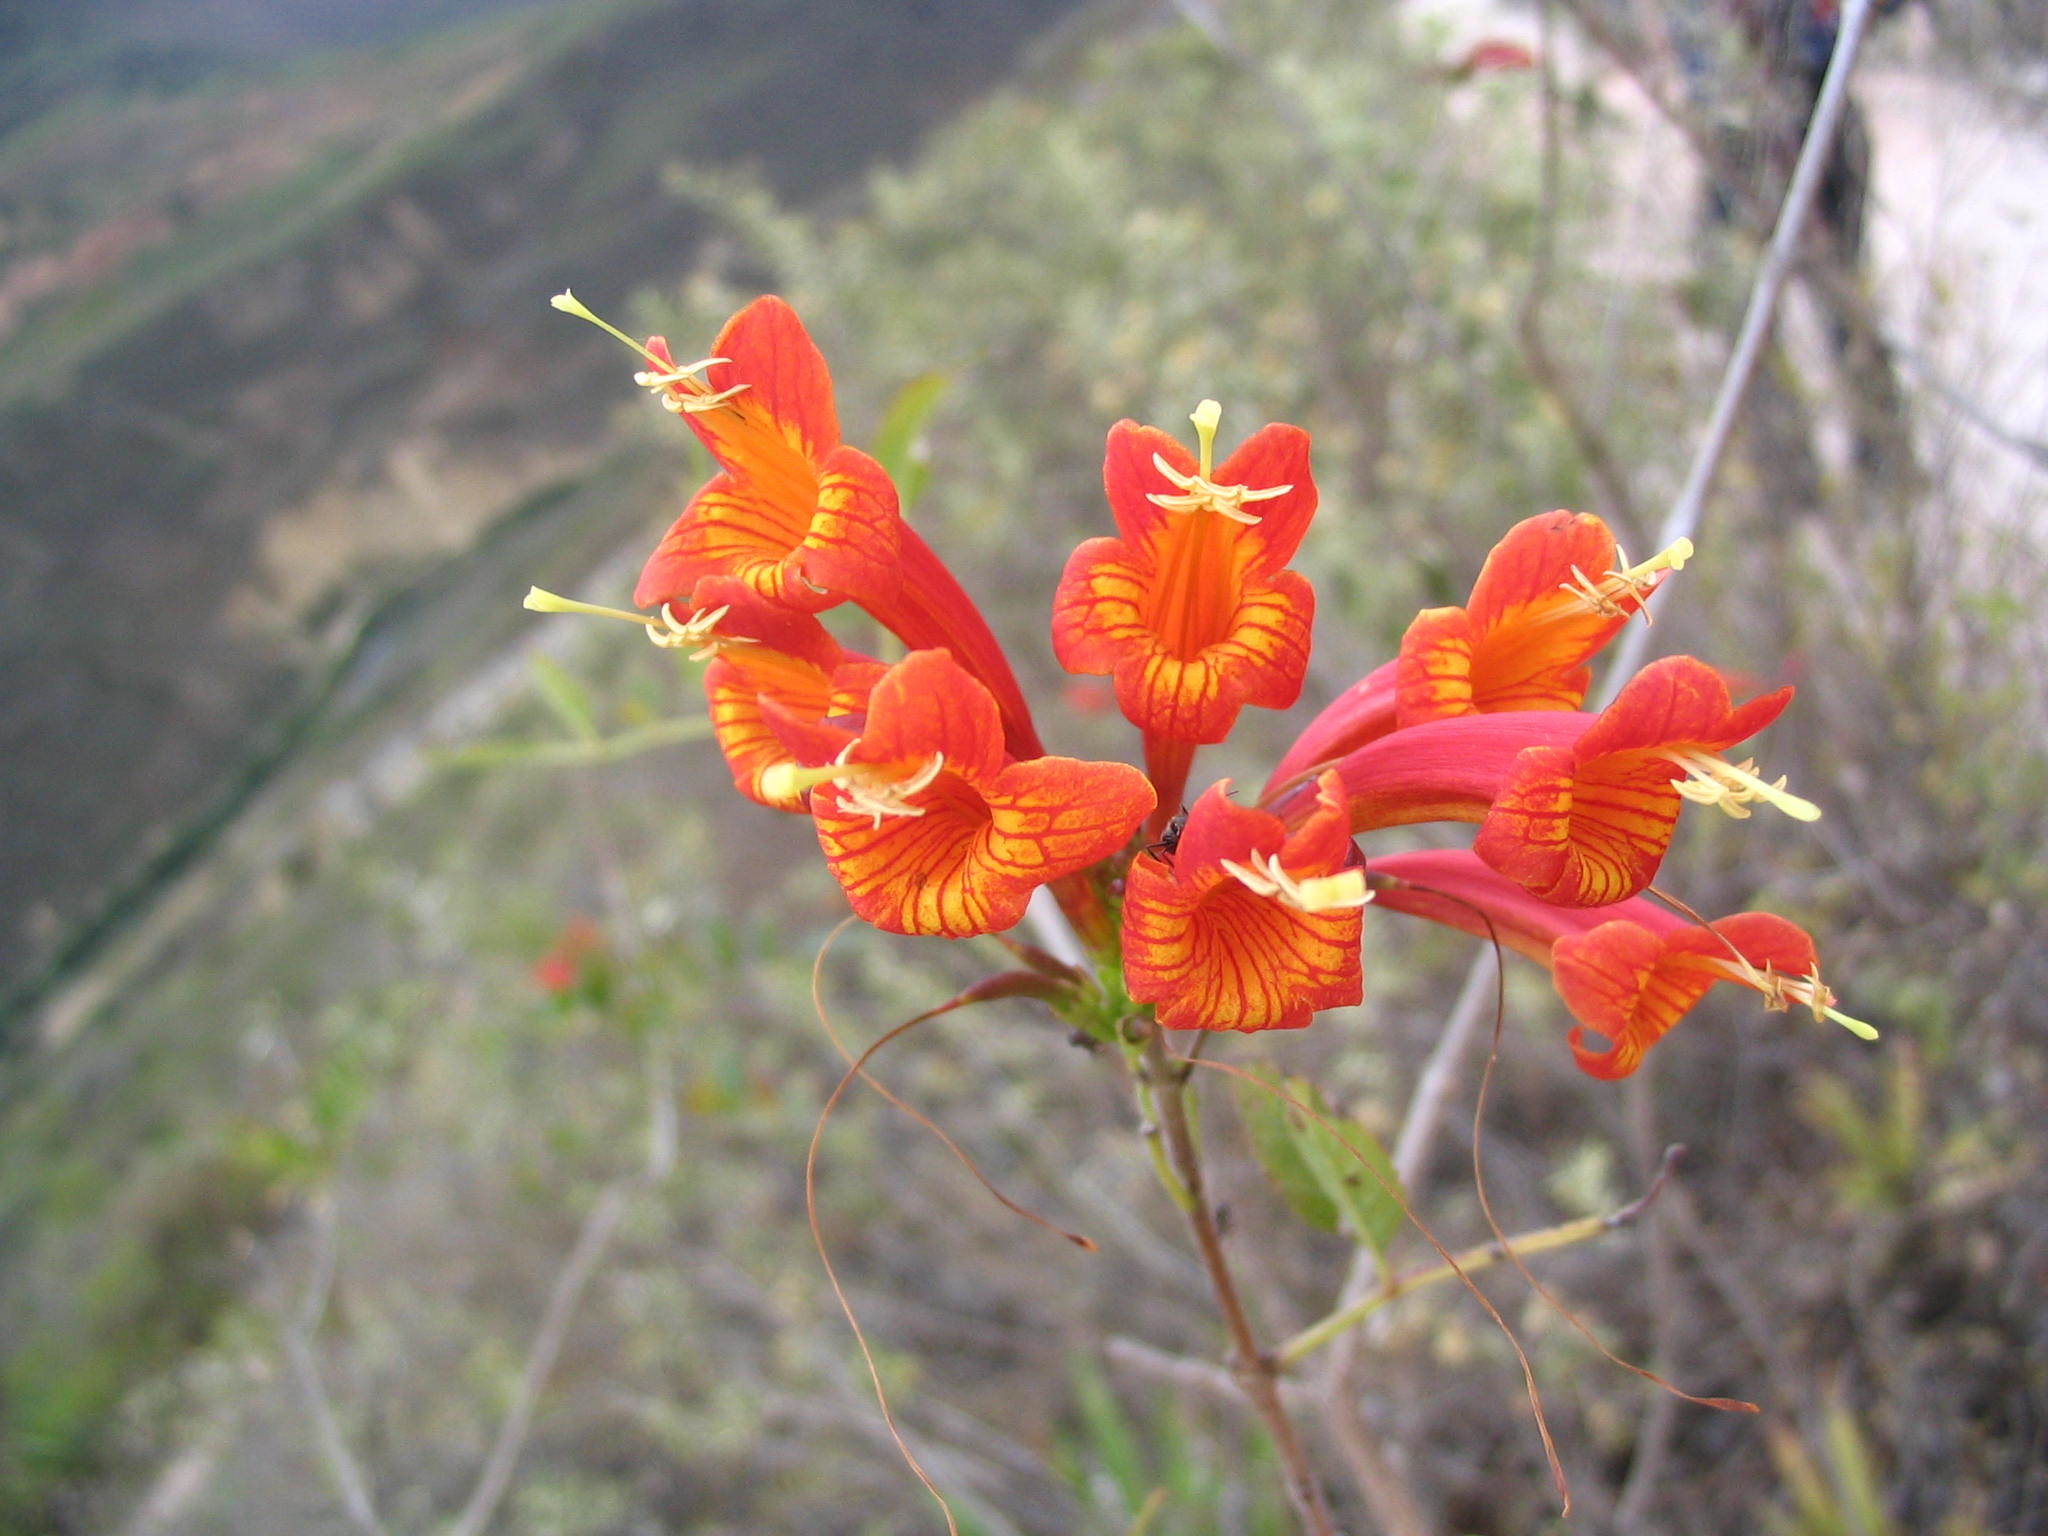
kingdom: Plantae
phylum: Tracheophyta
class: Magnoliopsida
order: Lamiales
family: Bignoniaceae
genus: Tecoma
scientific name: Tecoma rosifolia
